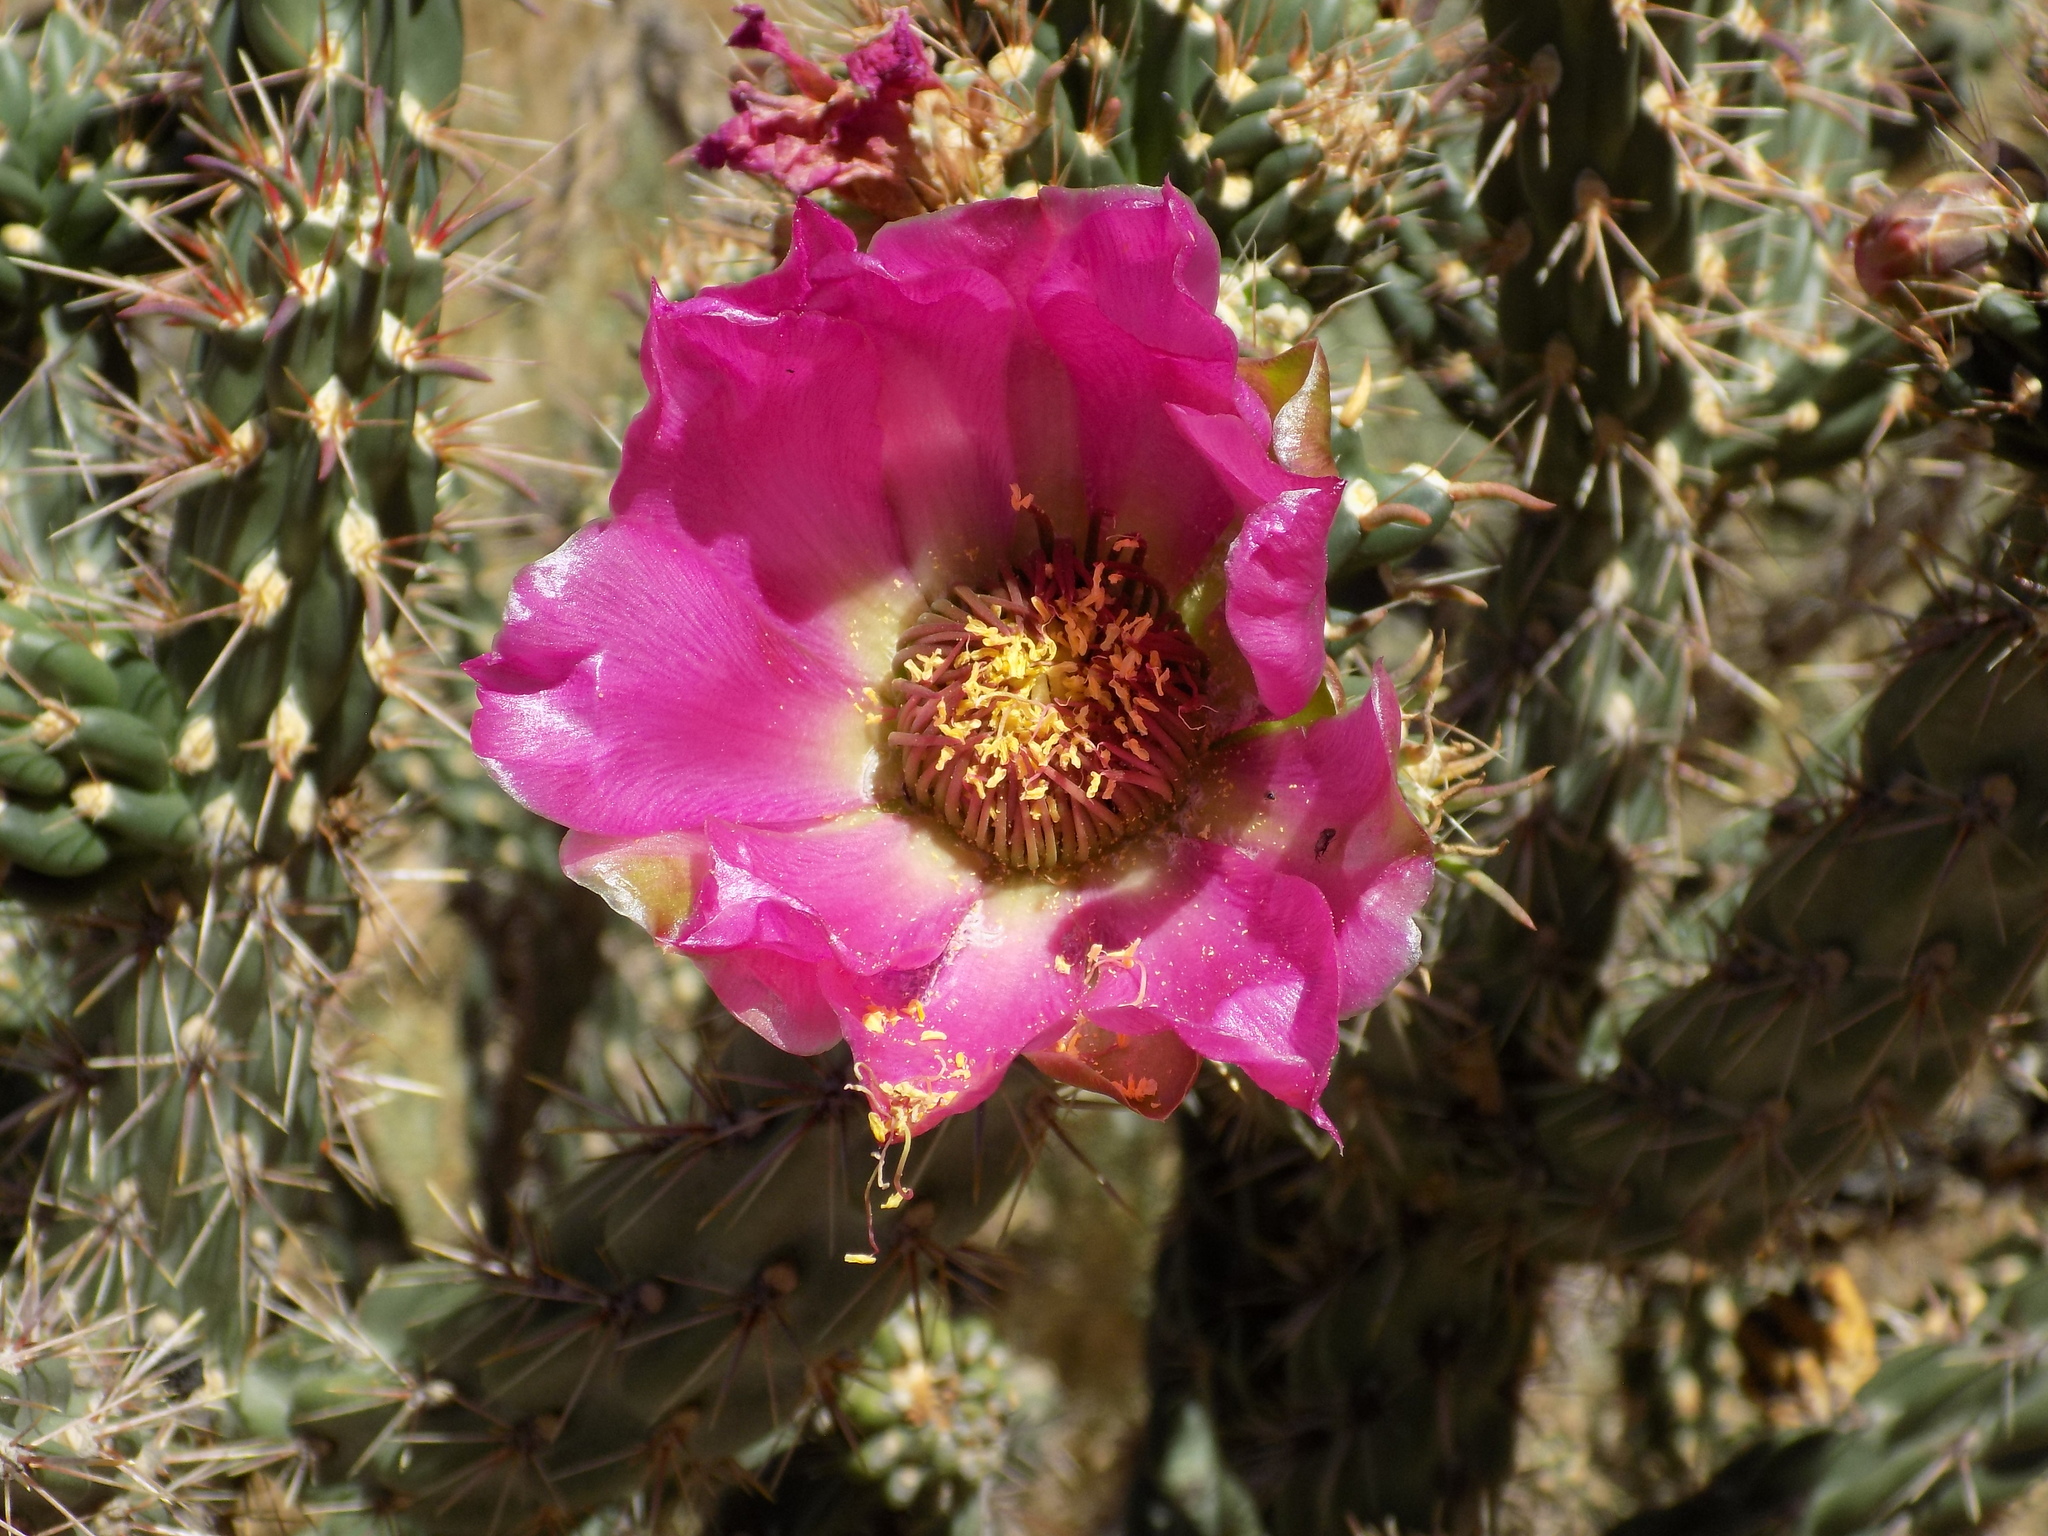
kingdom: Plantae
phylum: Tracheophyta
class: Magnoliopsida
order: Caryophyllales
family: Cactaceae
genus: Cylindropuntia
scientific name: Cylindropuntia imbricata
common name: Candelabrum cactus
